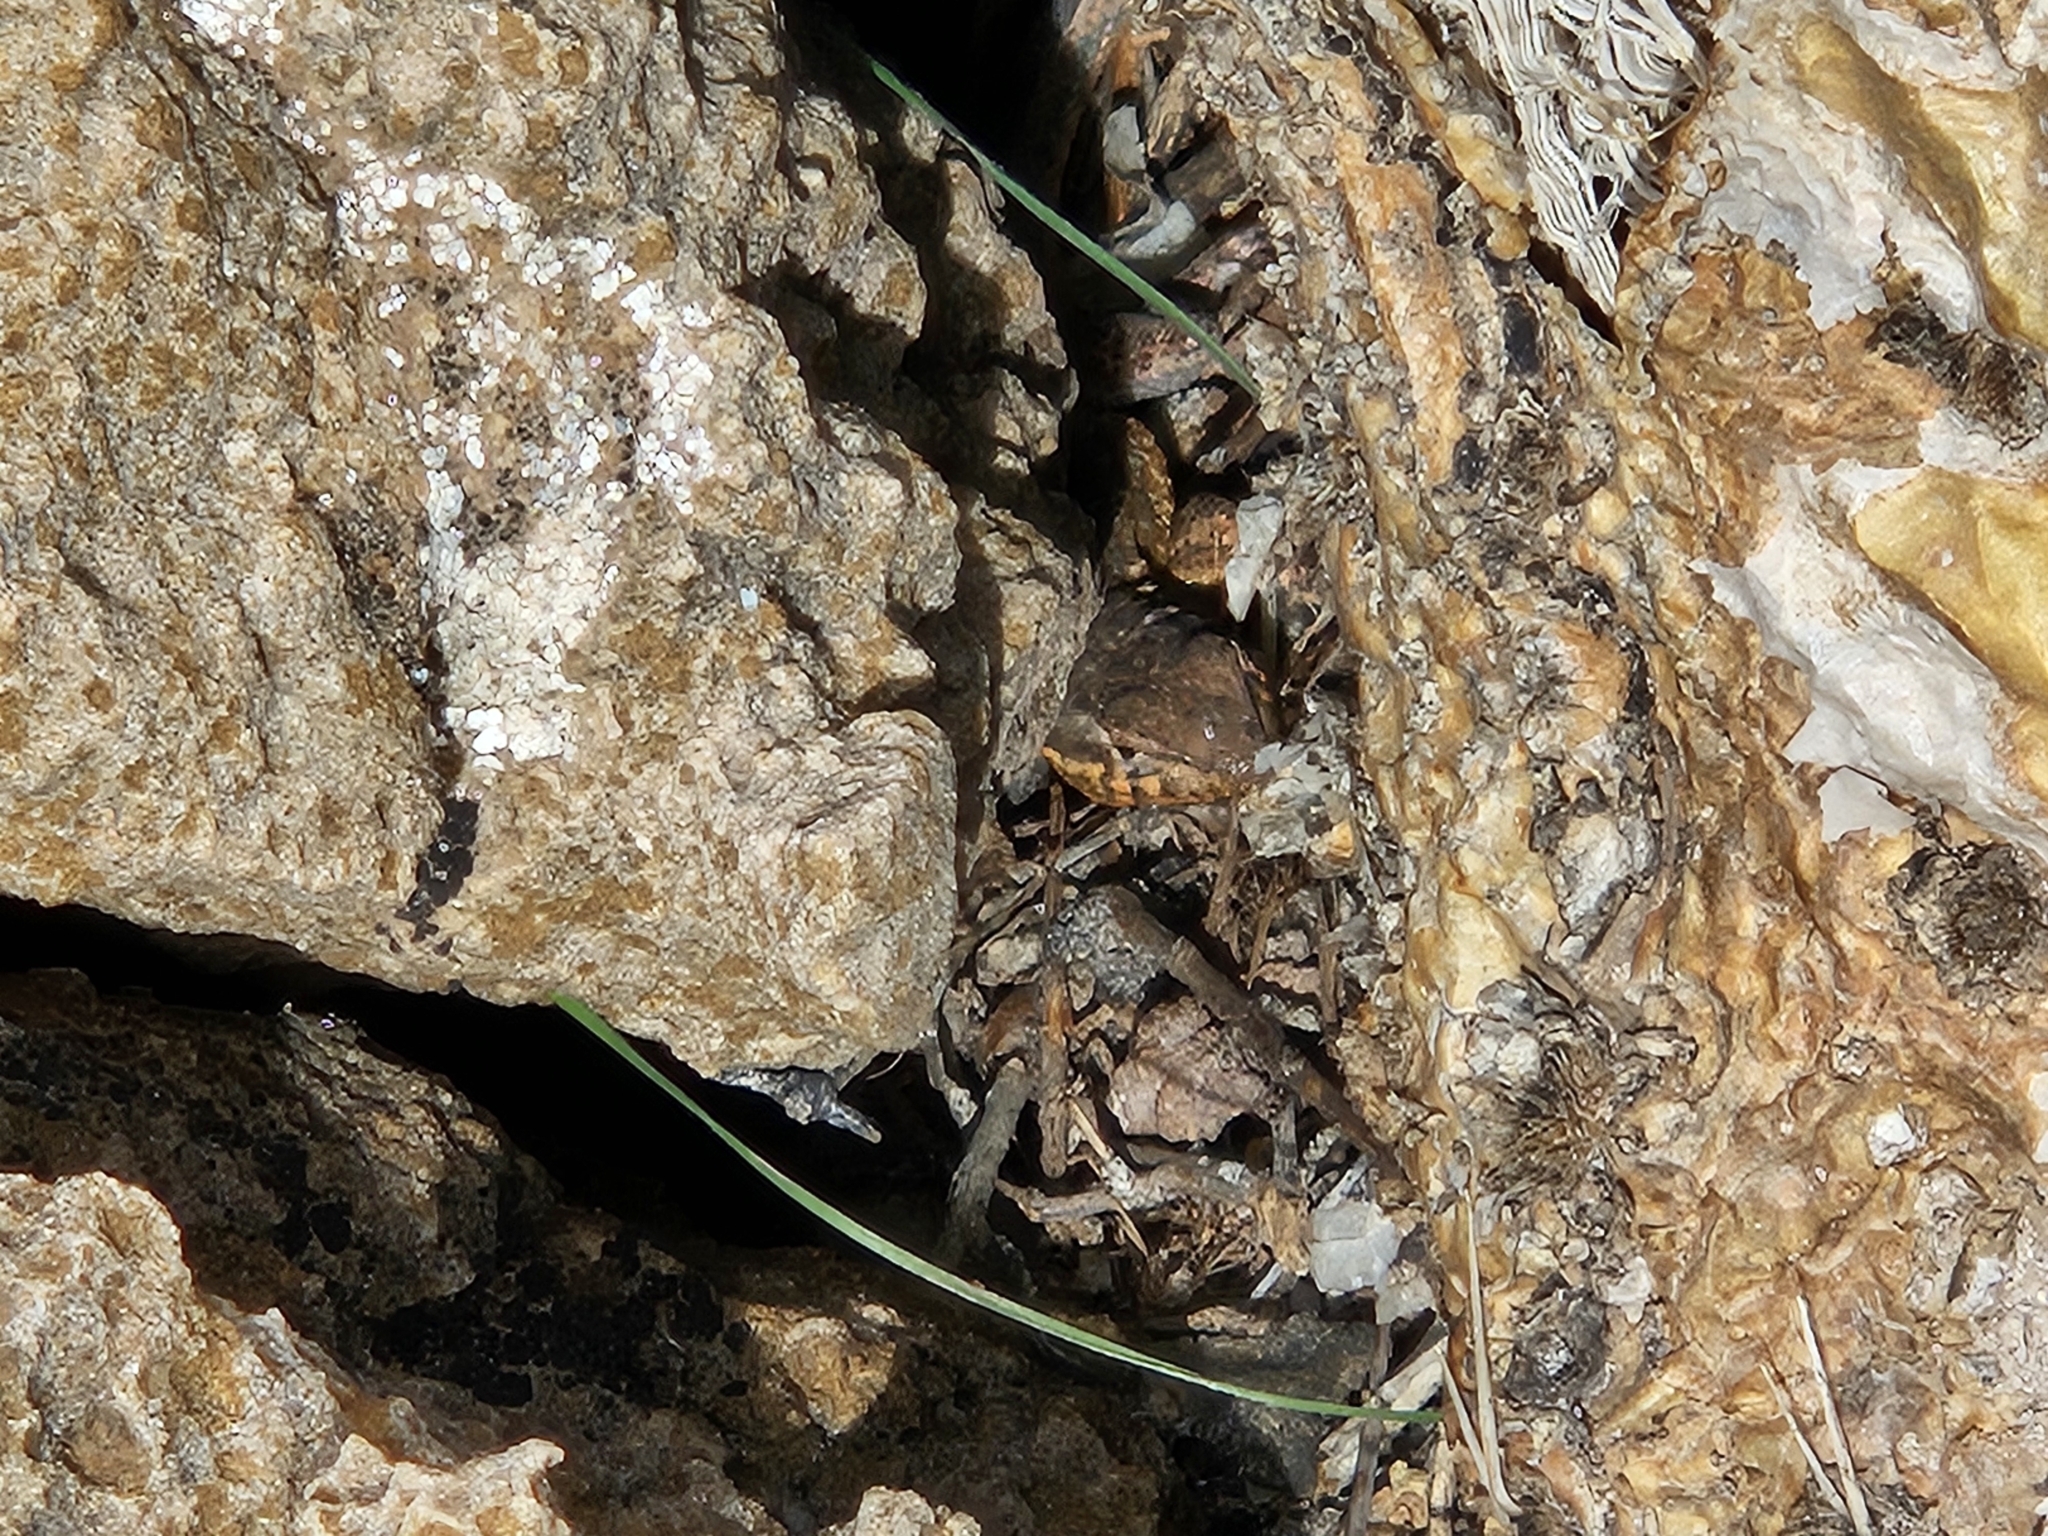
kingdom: Animalia
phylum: Chordata
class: Squamata
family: Phrynosomatidae
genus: Uta
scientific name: Uta stansburiana
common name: Side-blotched lizard
